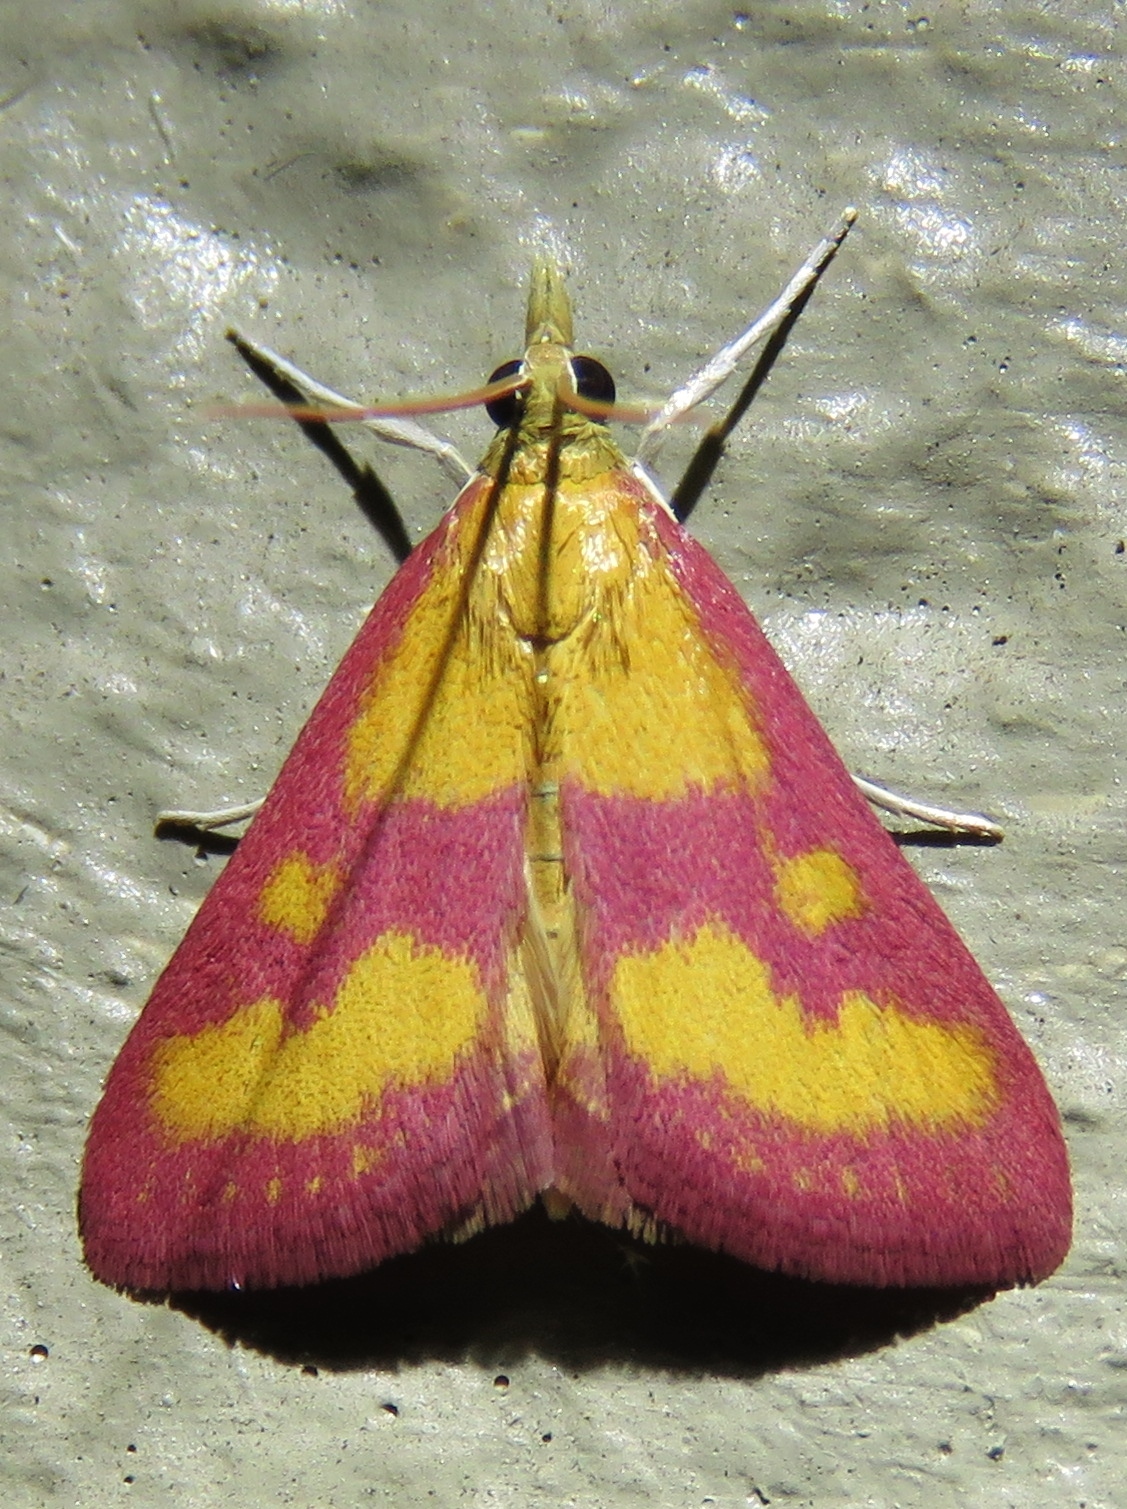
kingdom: Animalia
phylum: Arthropoda
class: Insecta
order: Lepidoptera
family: Crambidae
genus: Pyrausta
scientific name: Pyrausta laticlavia
